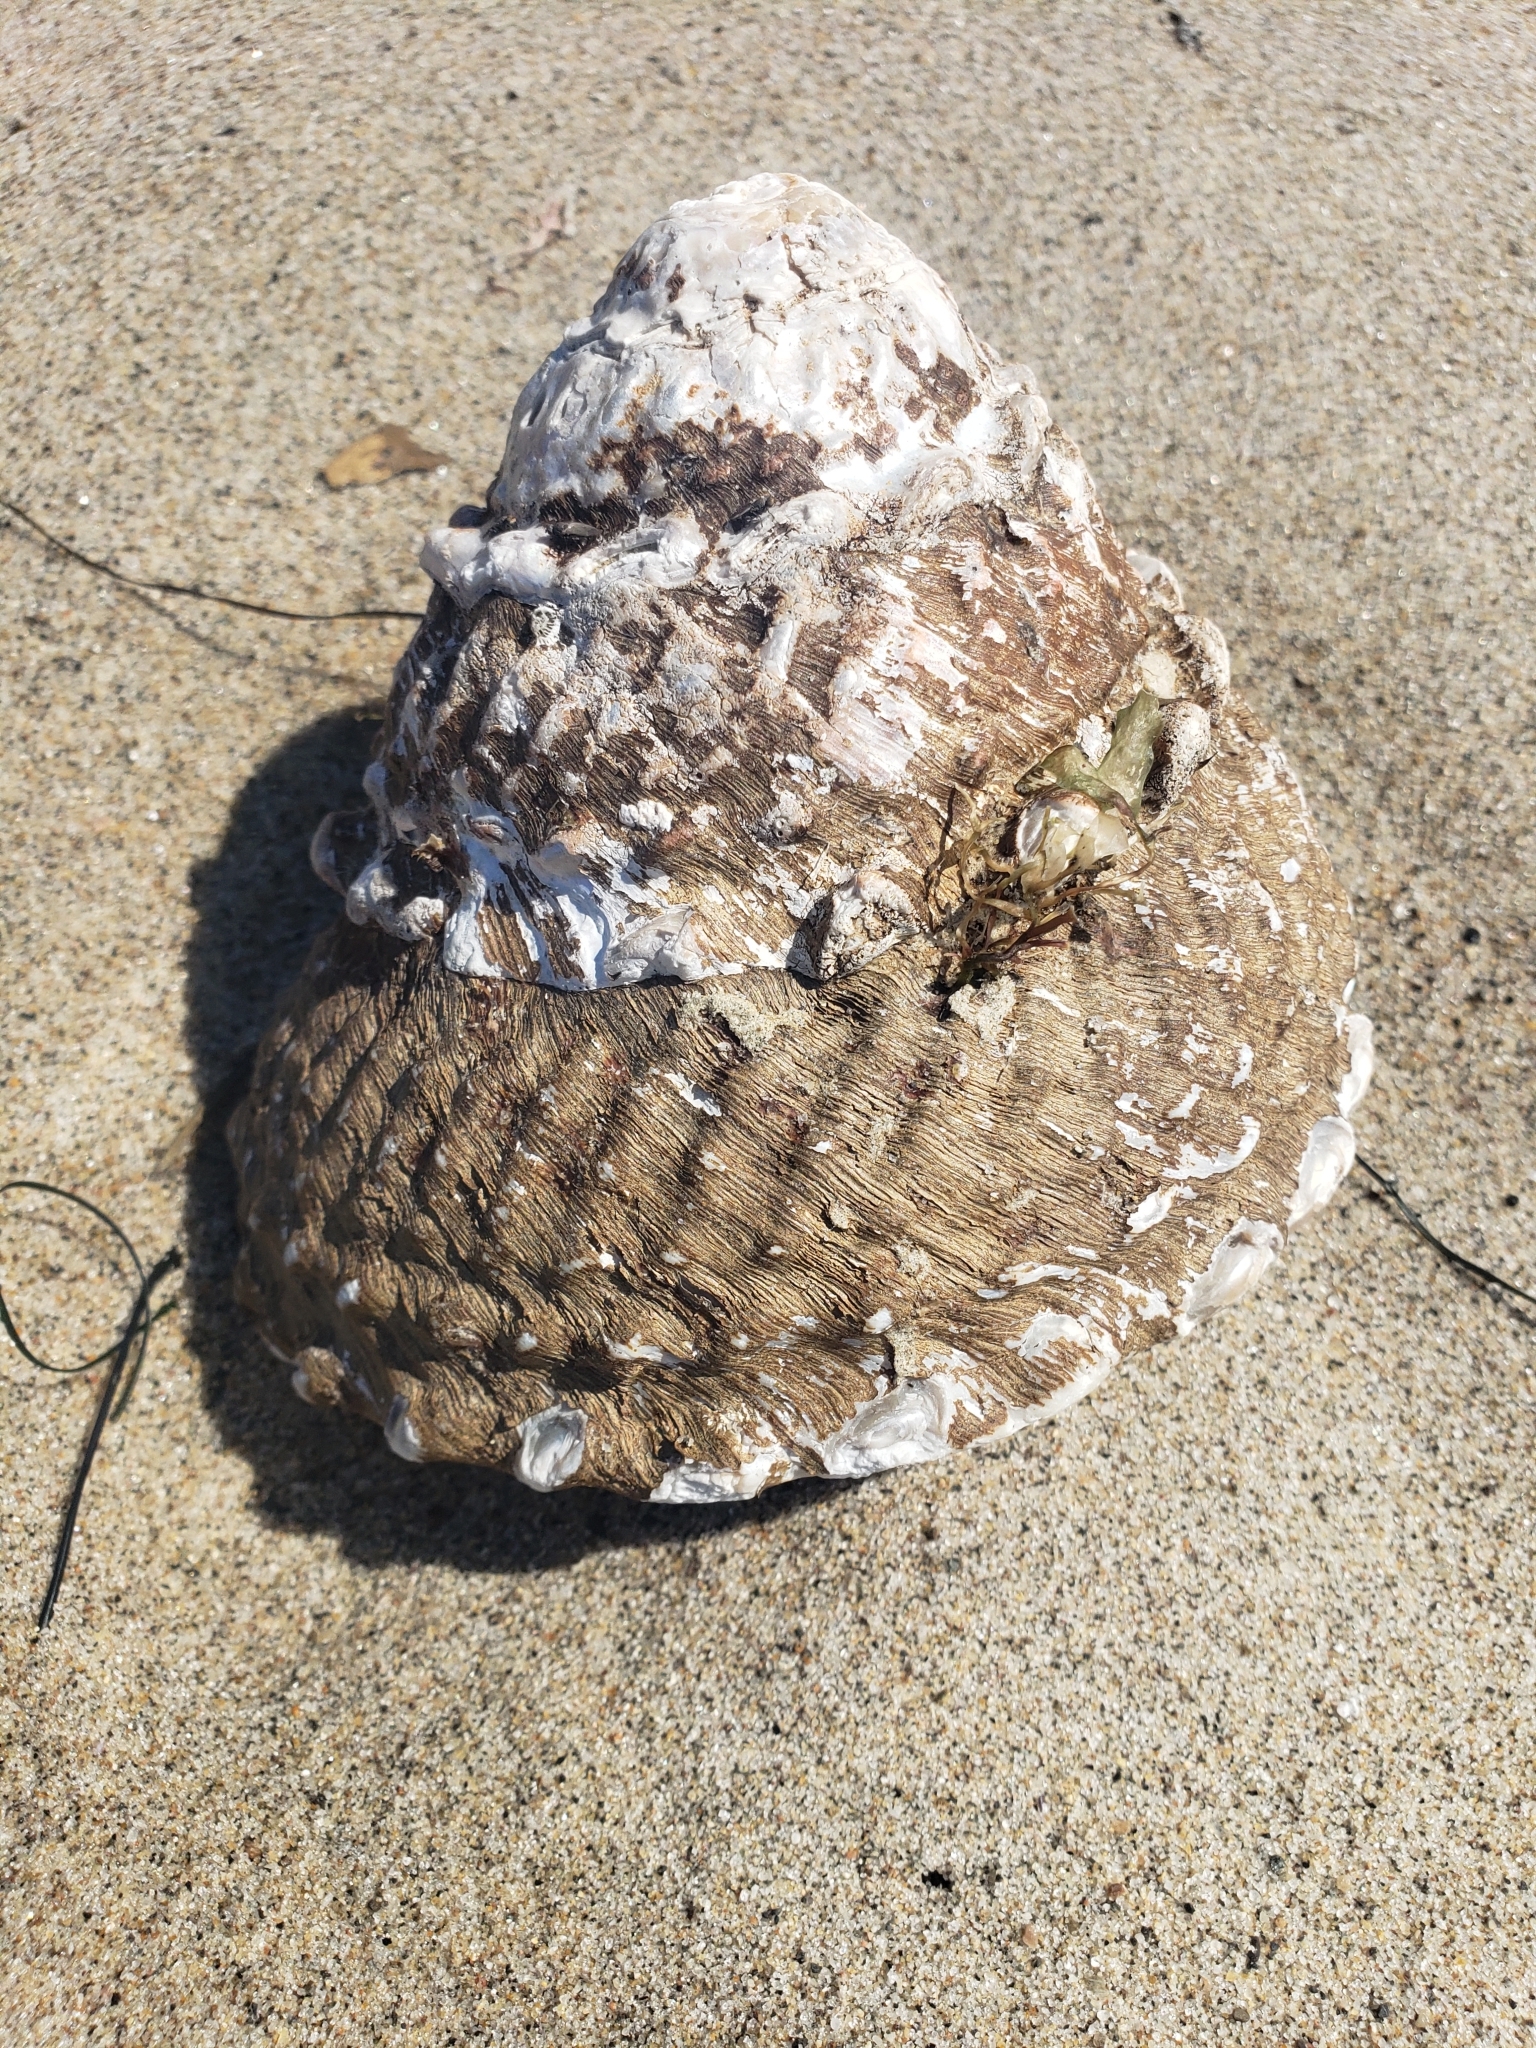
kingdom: Animalia
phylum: Mollusca
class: Gastropoda
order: Trochida
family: Turbinidae
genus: Megastraea
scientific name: Megastraea undosa
